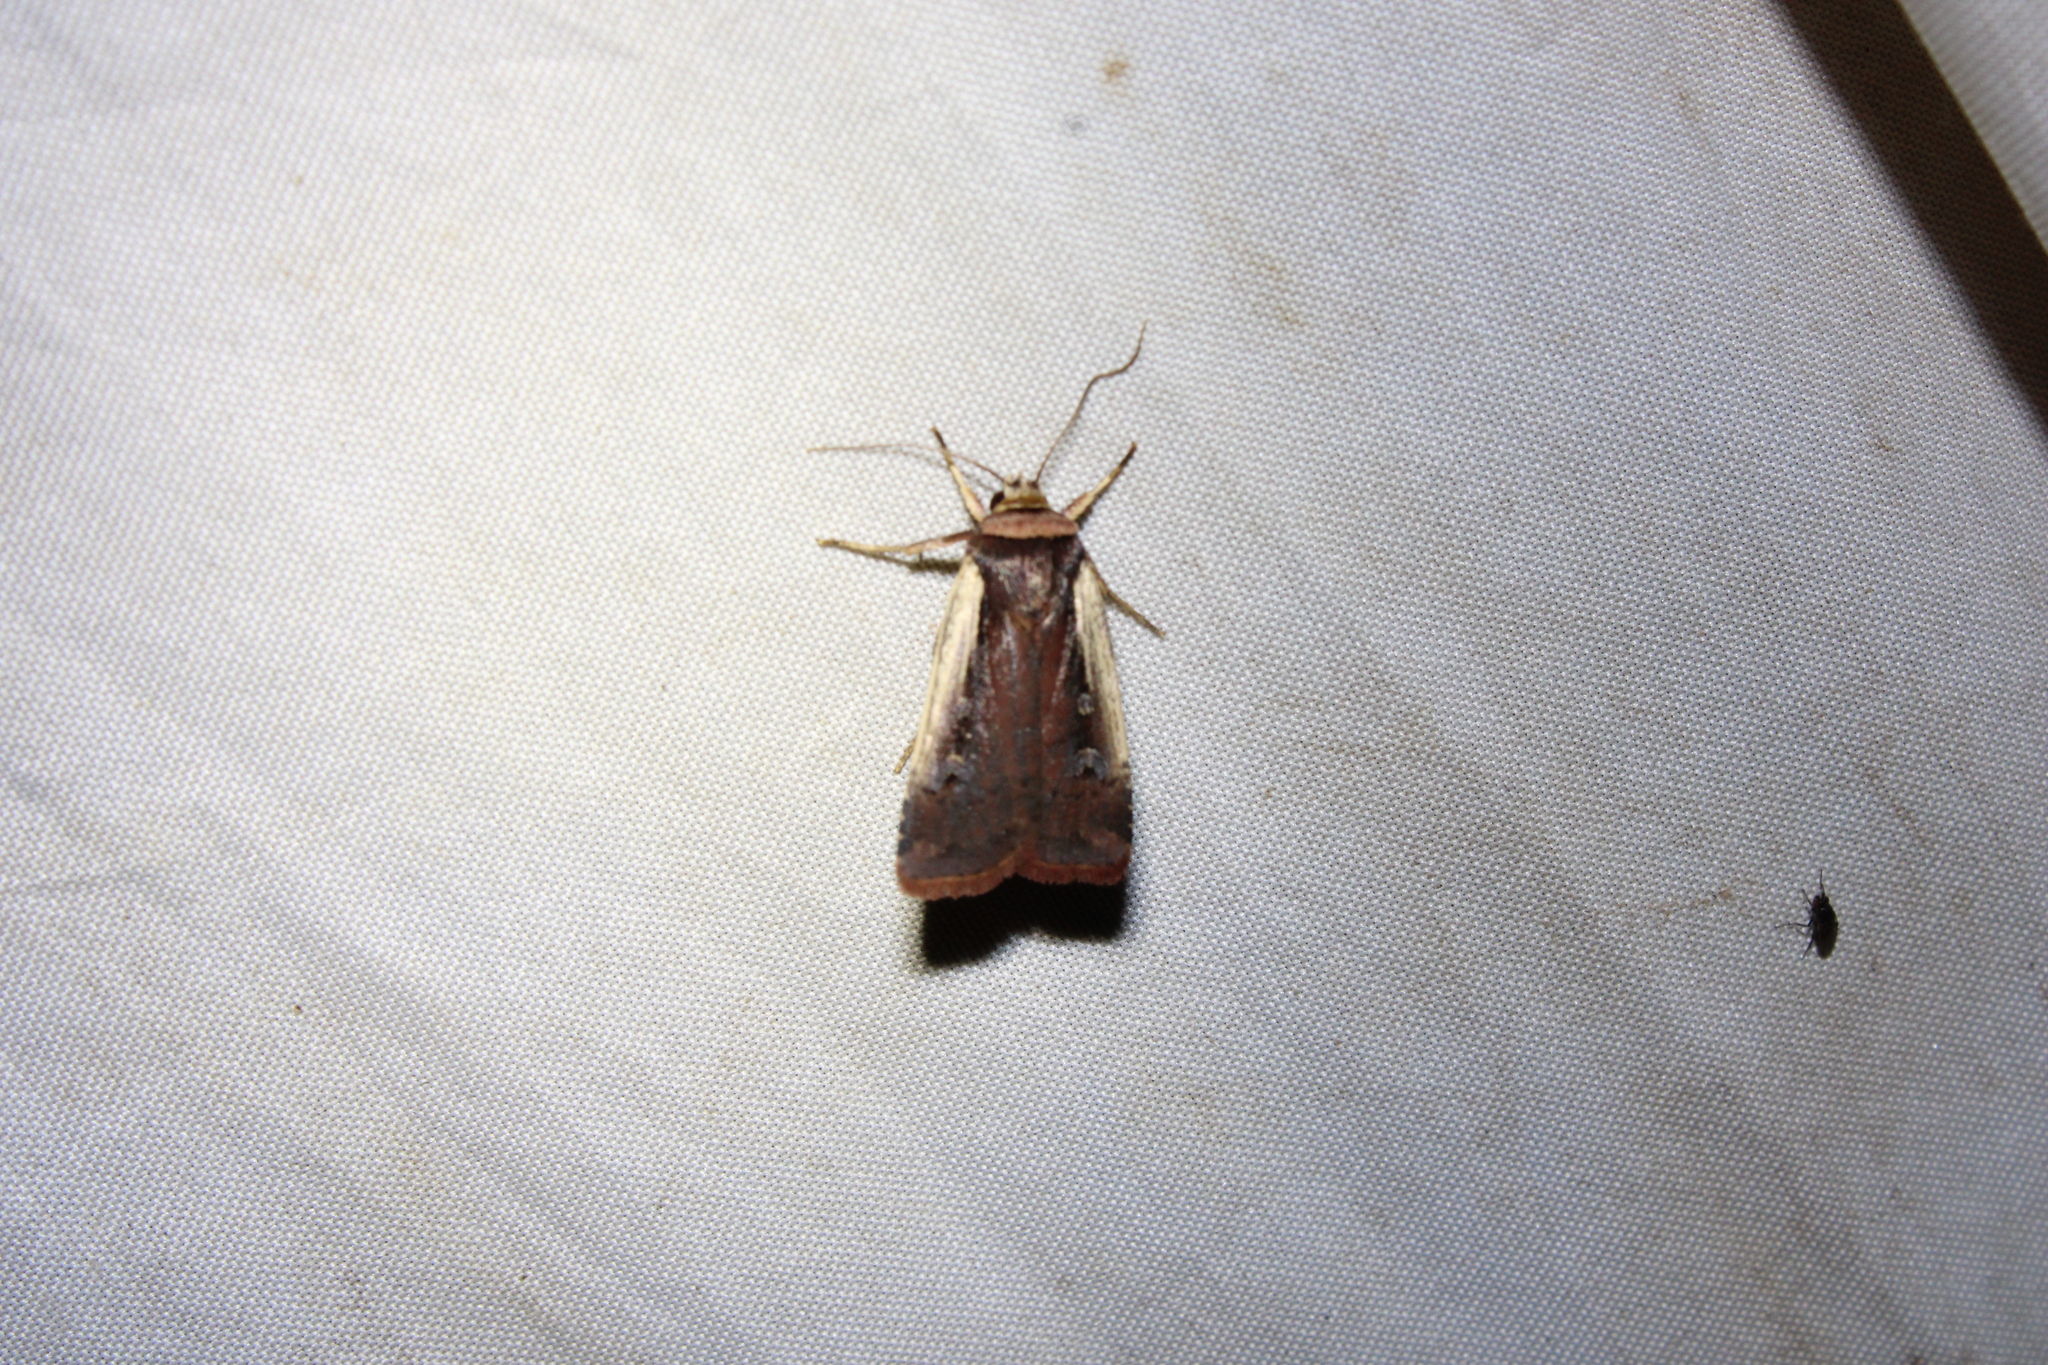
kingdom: Animalia
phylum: Arthropoda
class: Insecta
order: Lepidoptera
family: Noctuidae
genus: Ochropleura
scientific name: Ochropleura implecta
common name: Flame-shouldered dart
